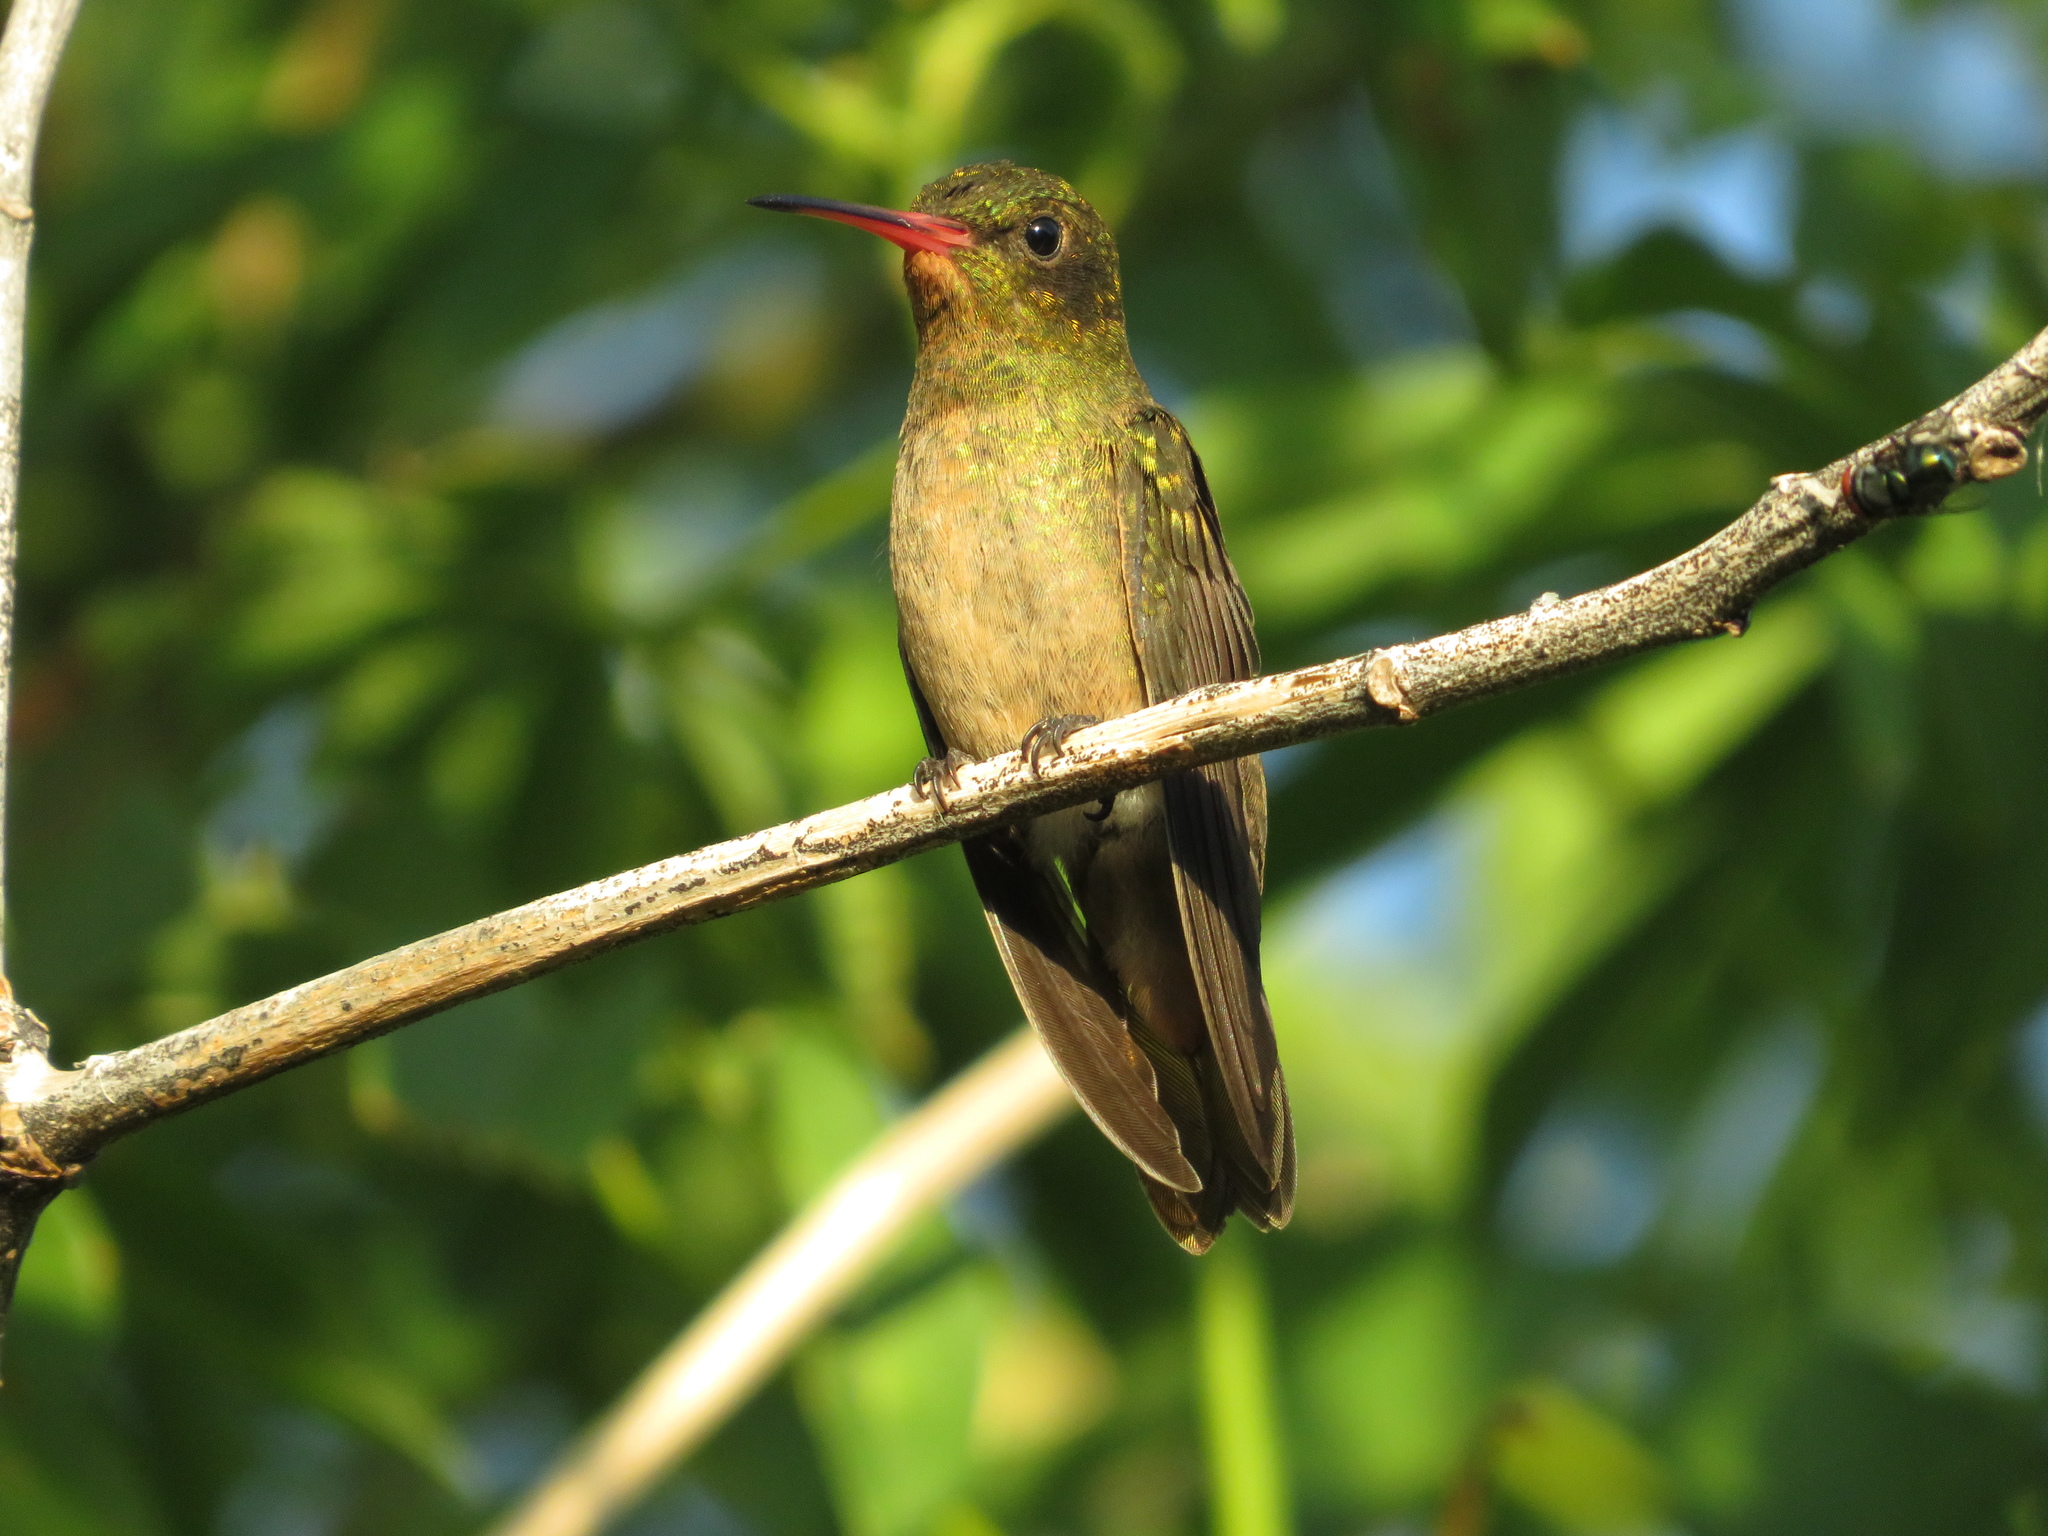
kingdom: Animalia
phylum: Chordata
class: Aves
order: Apodiformes
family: Trochilidae
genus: Hylocharis
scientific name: Hylocharis chrysura
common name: Gilded sapphire
